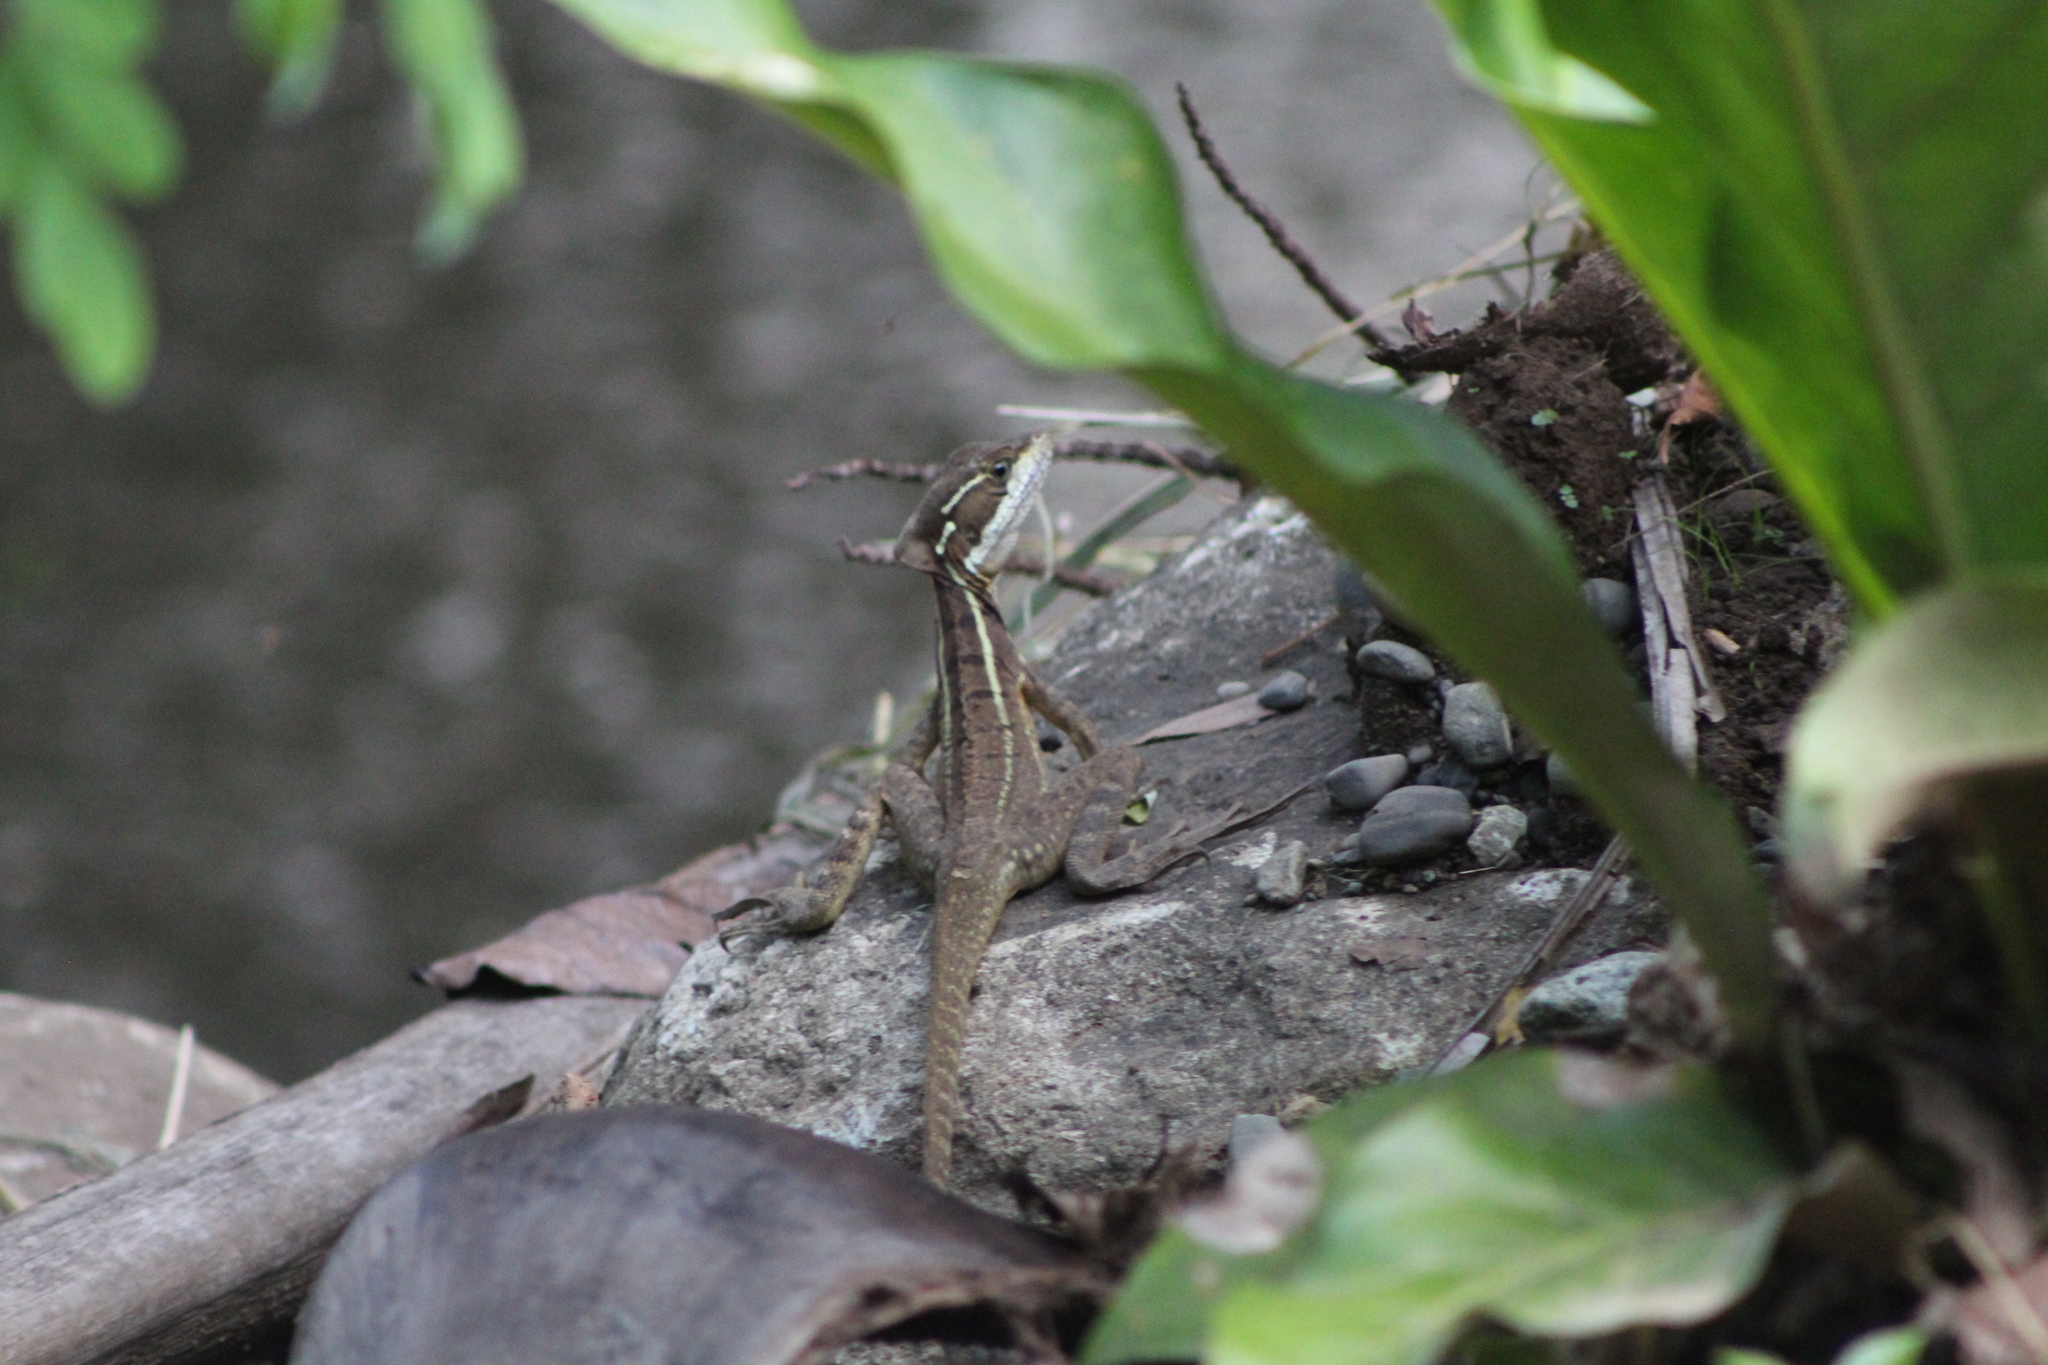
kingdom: Animalia
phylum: Chordata
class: Squamata
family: Corytophanidae
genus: Basiliscus
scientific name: Basiliscus basiliscus
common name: Common basilisk
